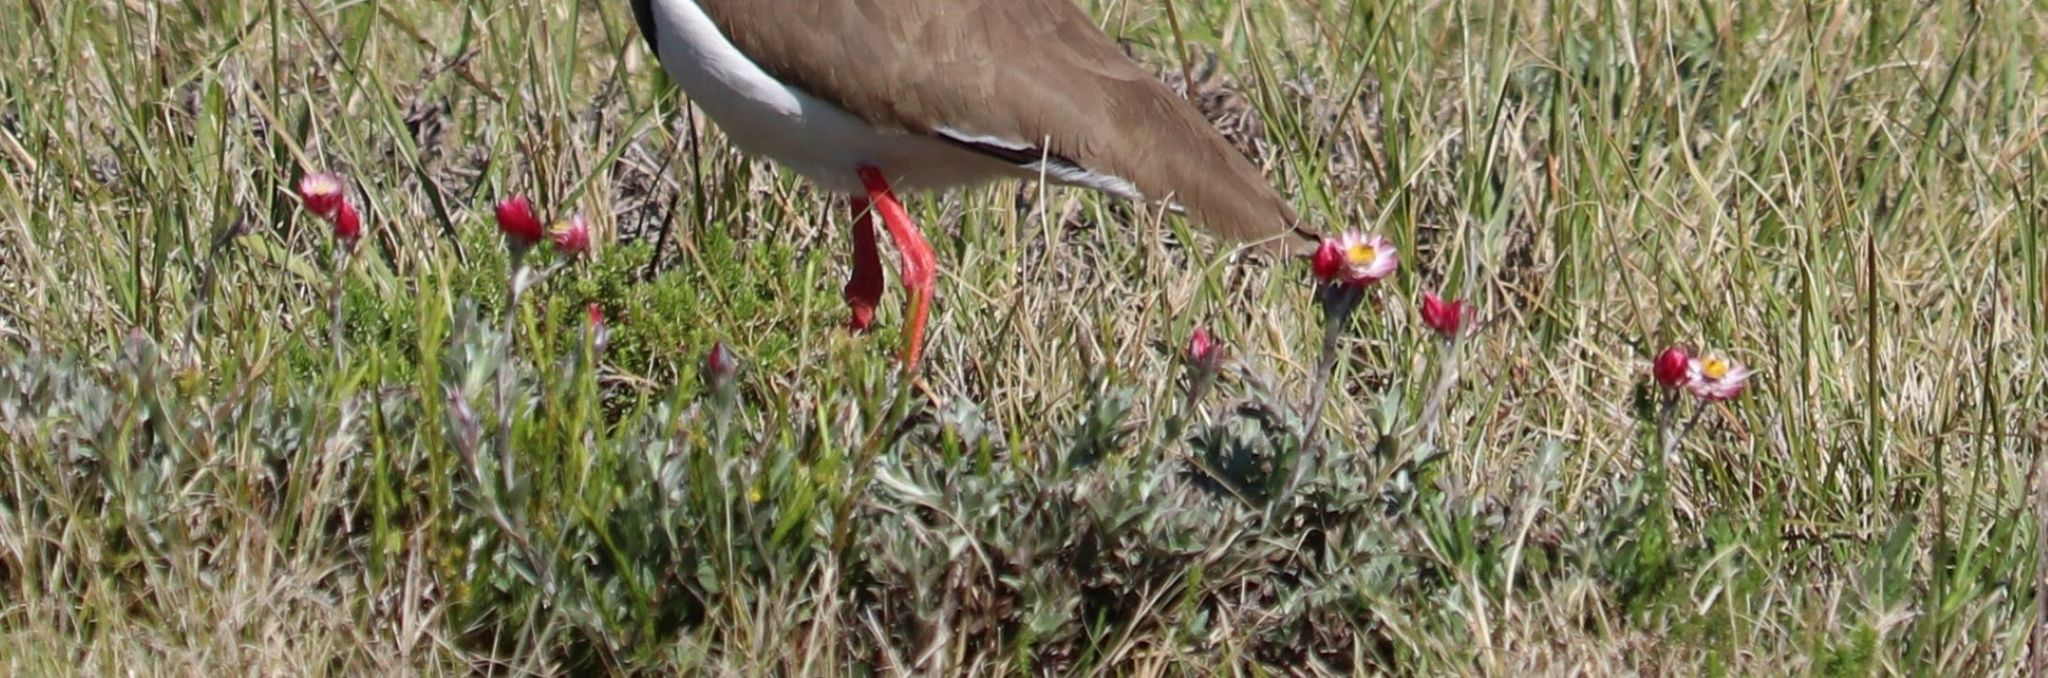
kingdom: Plantae
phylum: Tracheophyta
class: Magnoliopsida
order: Asterales
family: Asteraceae
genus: Achyranthemum
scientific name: Achyranthemum affine
